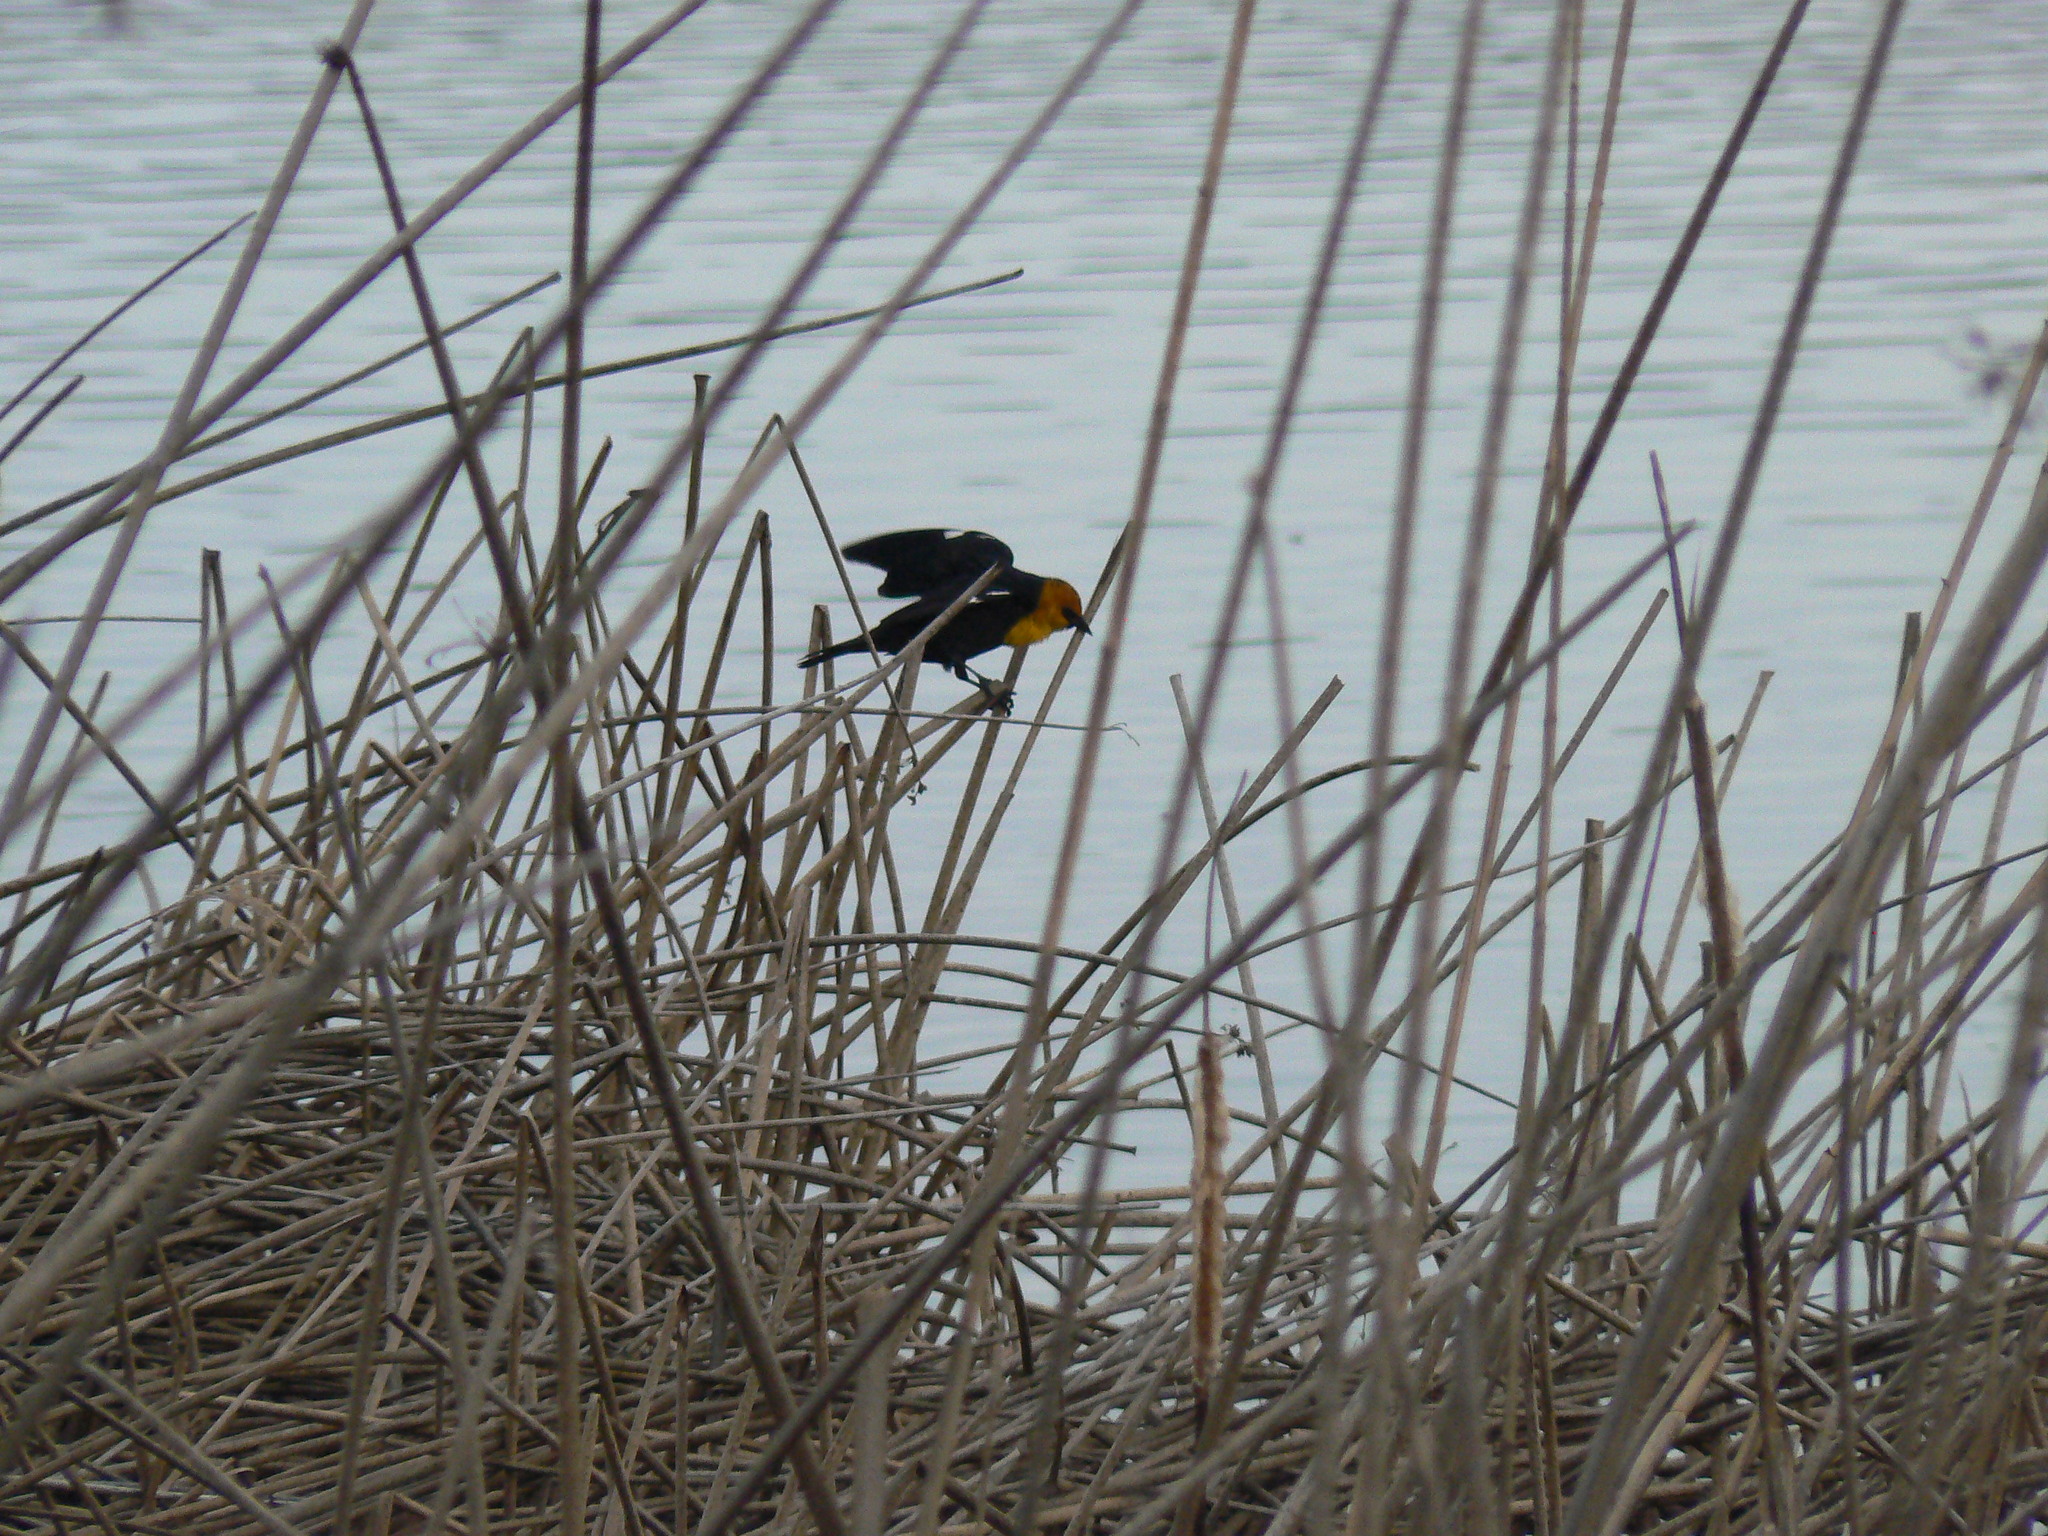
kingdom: Animalia
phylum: Chordata
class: Aves
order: Passeriformes
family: Icteridae
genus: Xanthocephalus
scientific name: Xanthocephalus xanthocephalus
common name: Yellow-headed blackbird
